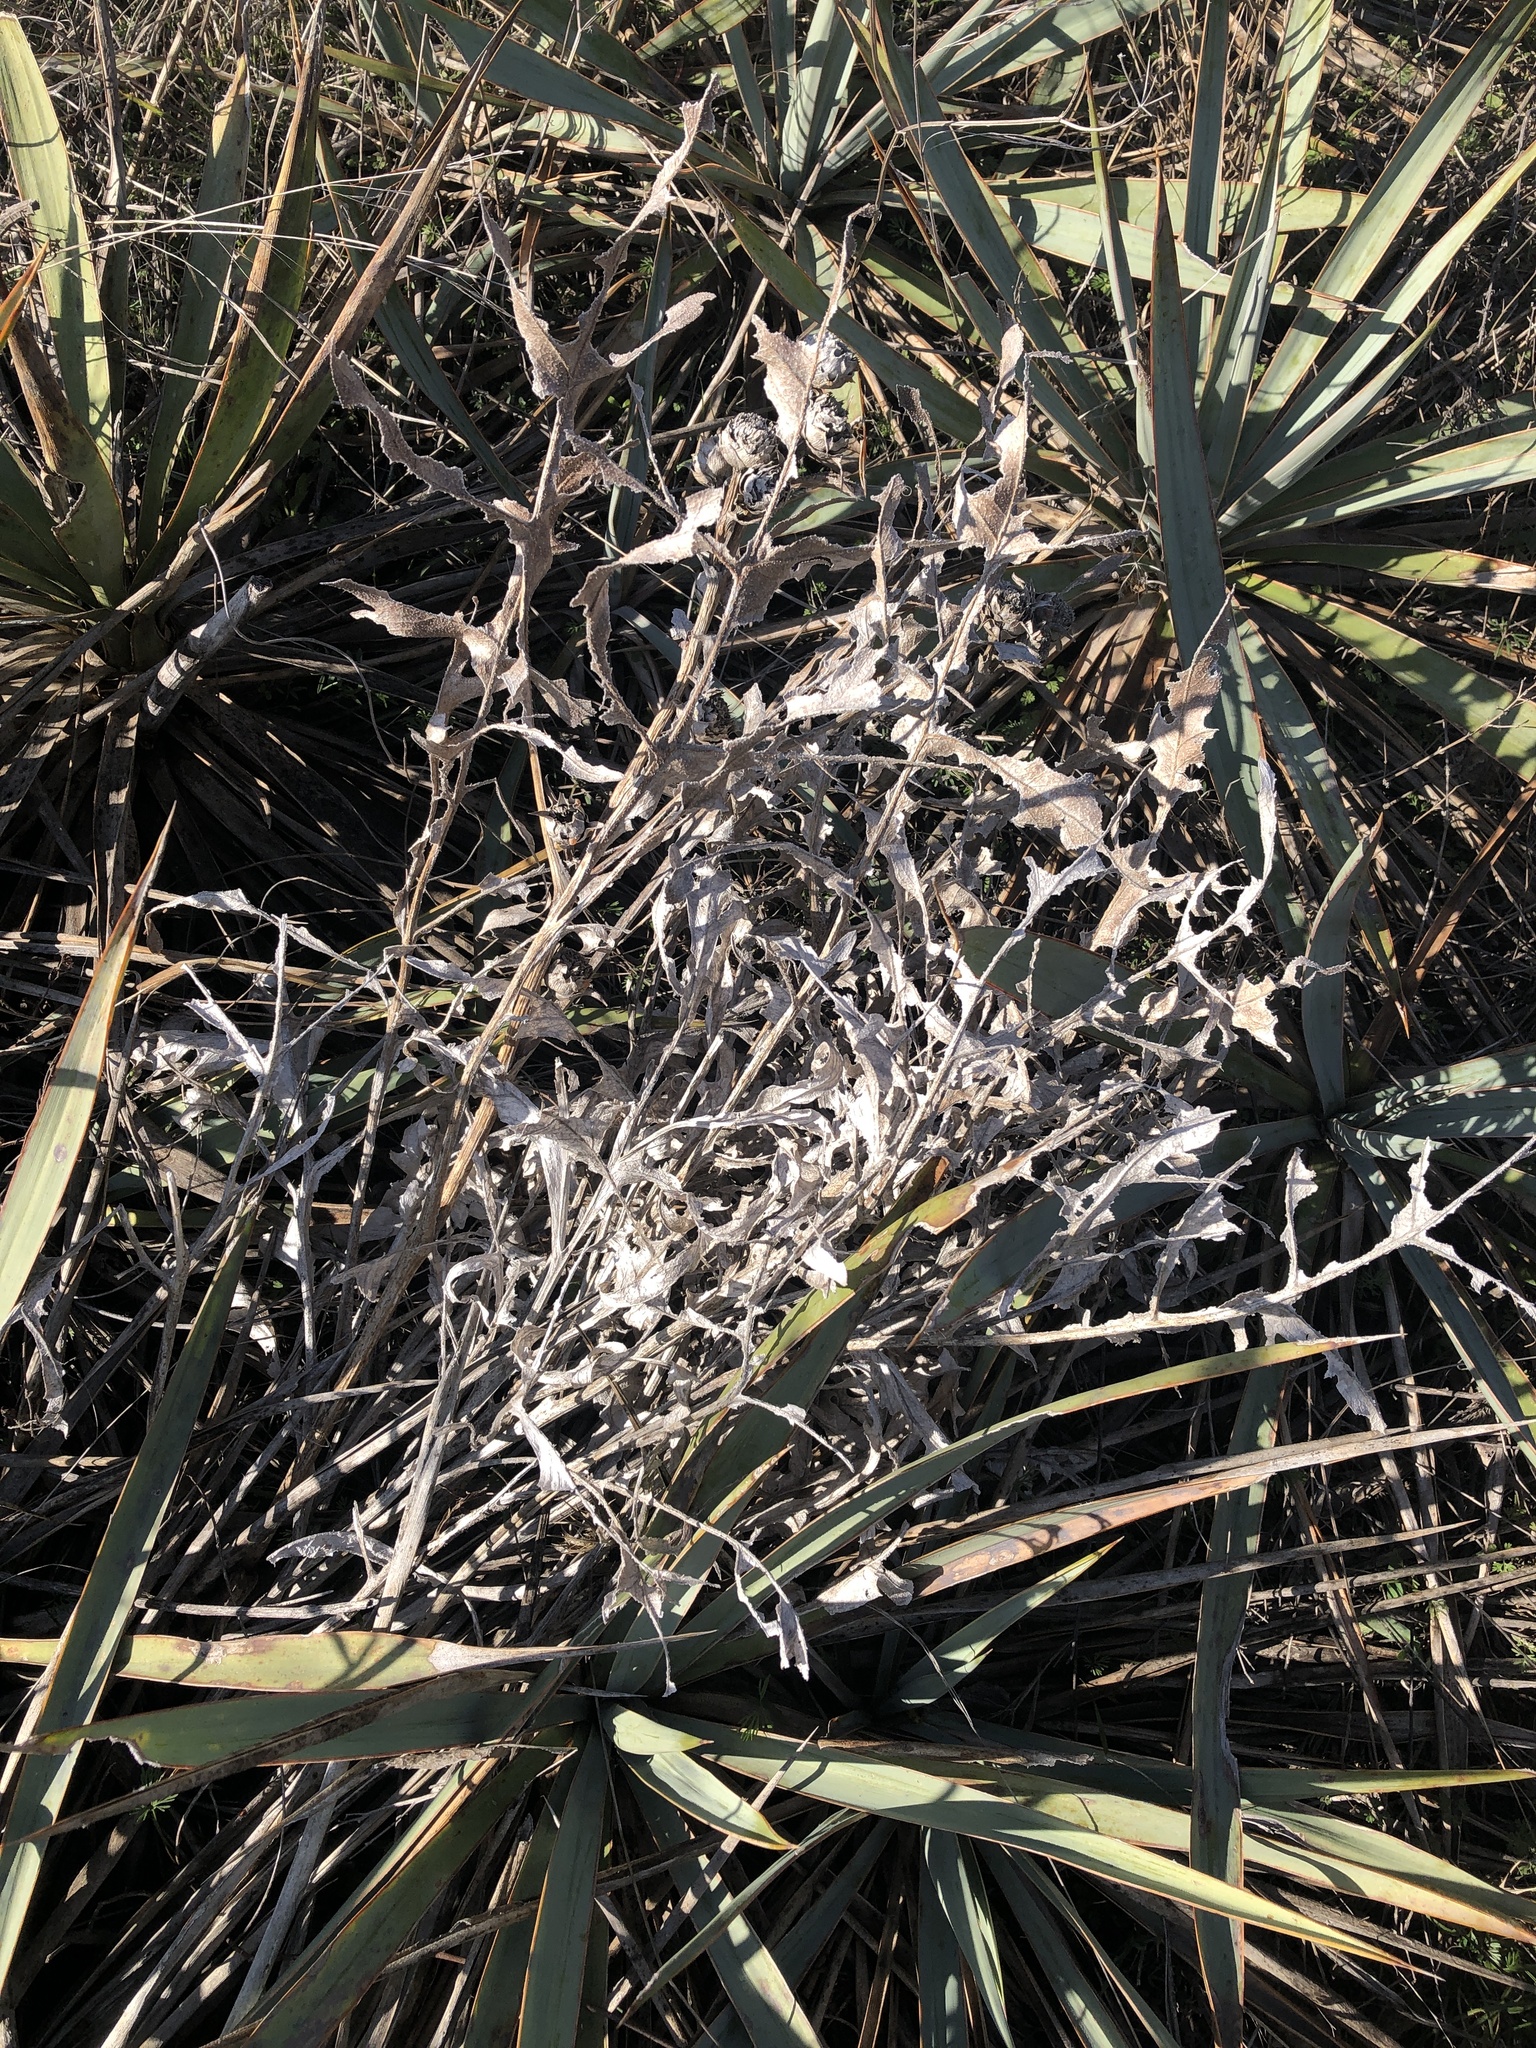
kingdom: Plantae
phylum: Tracheophyta
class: Magnoliopsida
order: Asterales
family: Asteraceae
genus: Silphium
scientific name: Silphium albiflorum
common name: White rosinweed
